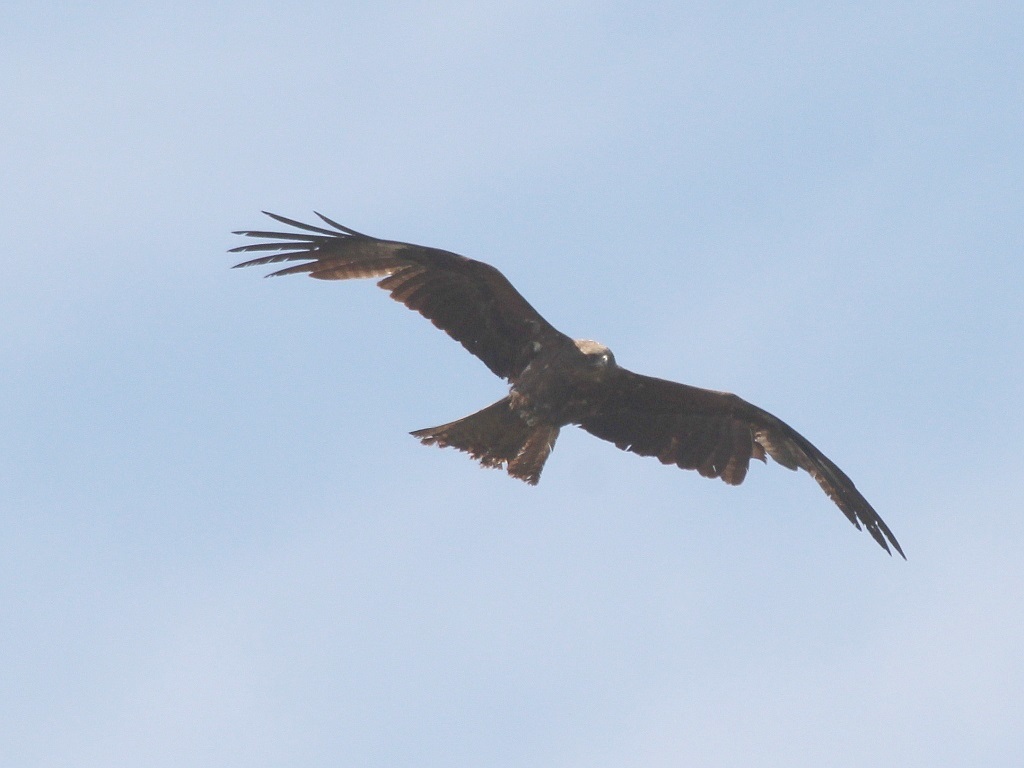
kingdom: Animalia
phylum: Chordata
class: Aves
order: Accipitriformes
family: Accipitridae
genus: Milvus
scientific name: Milvus migrans
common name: Black kite
